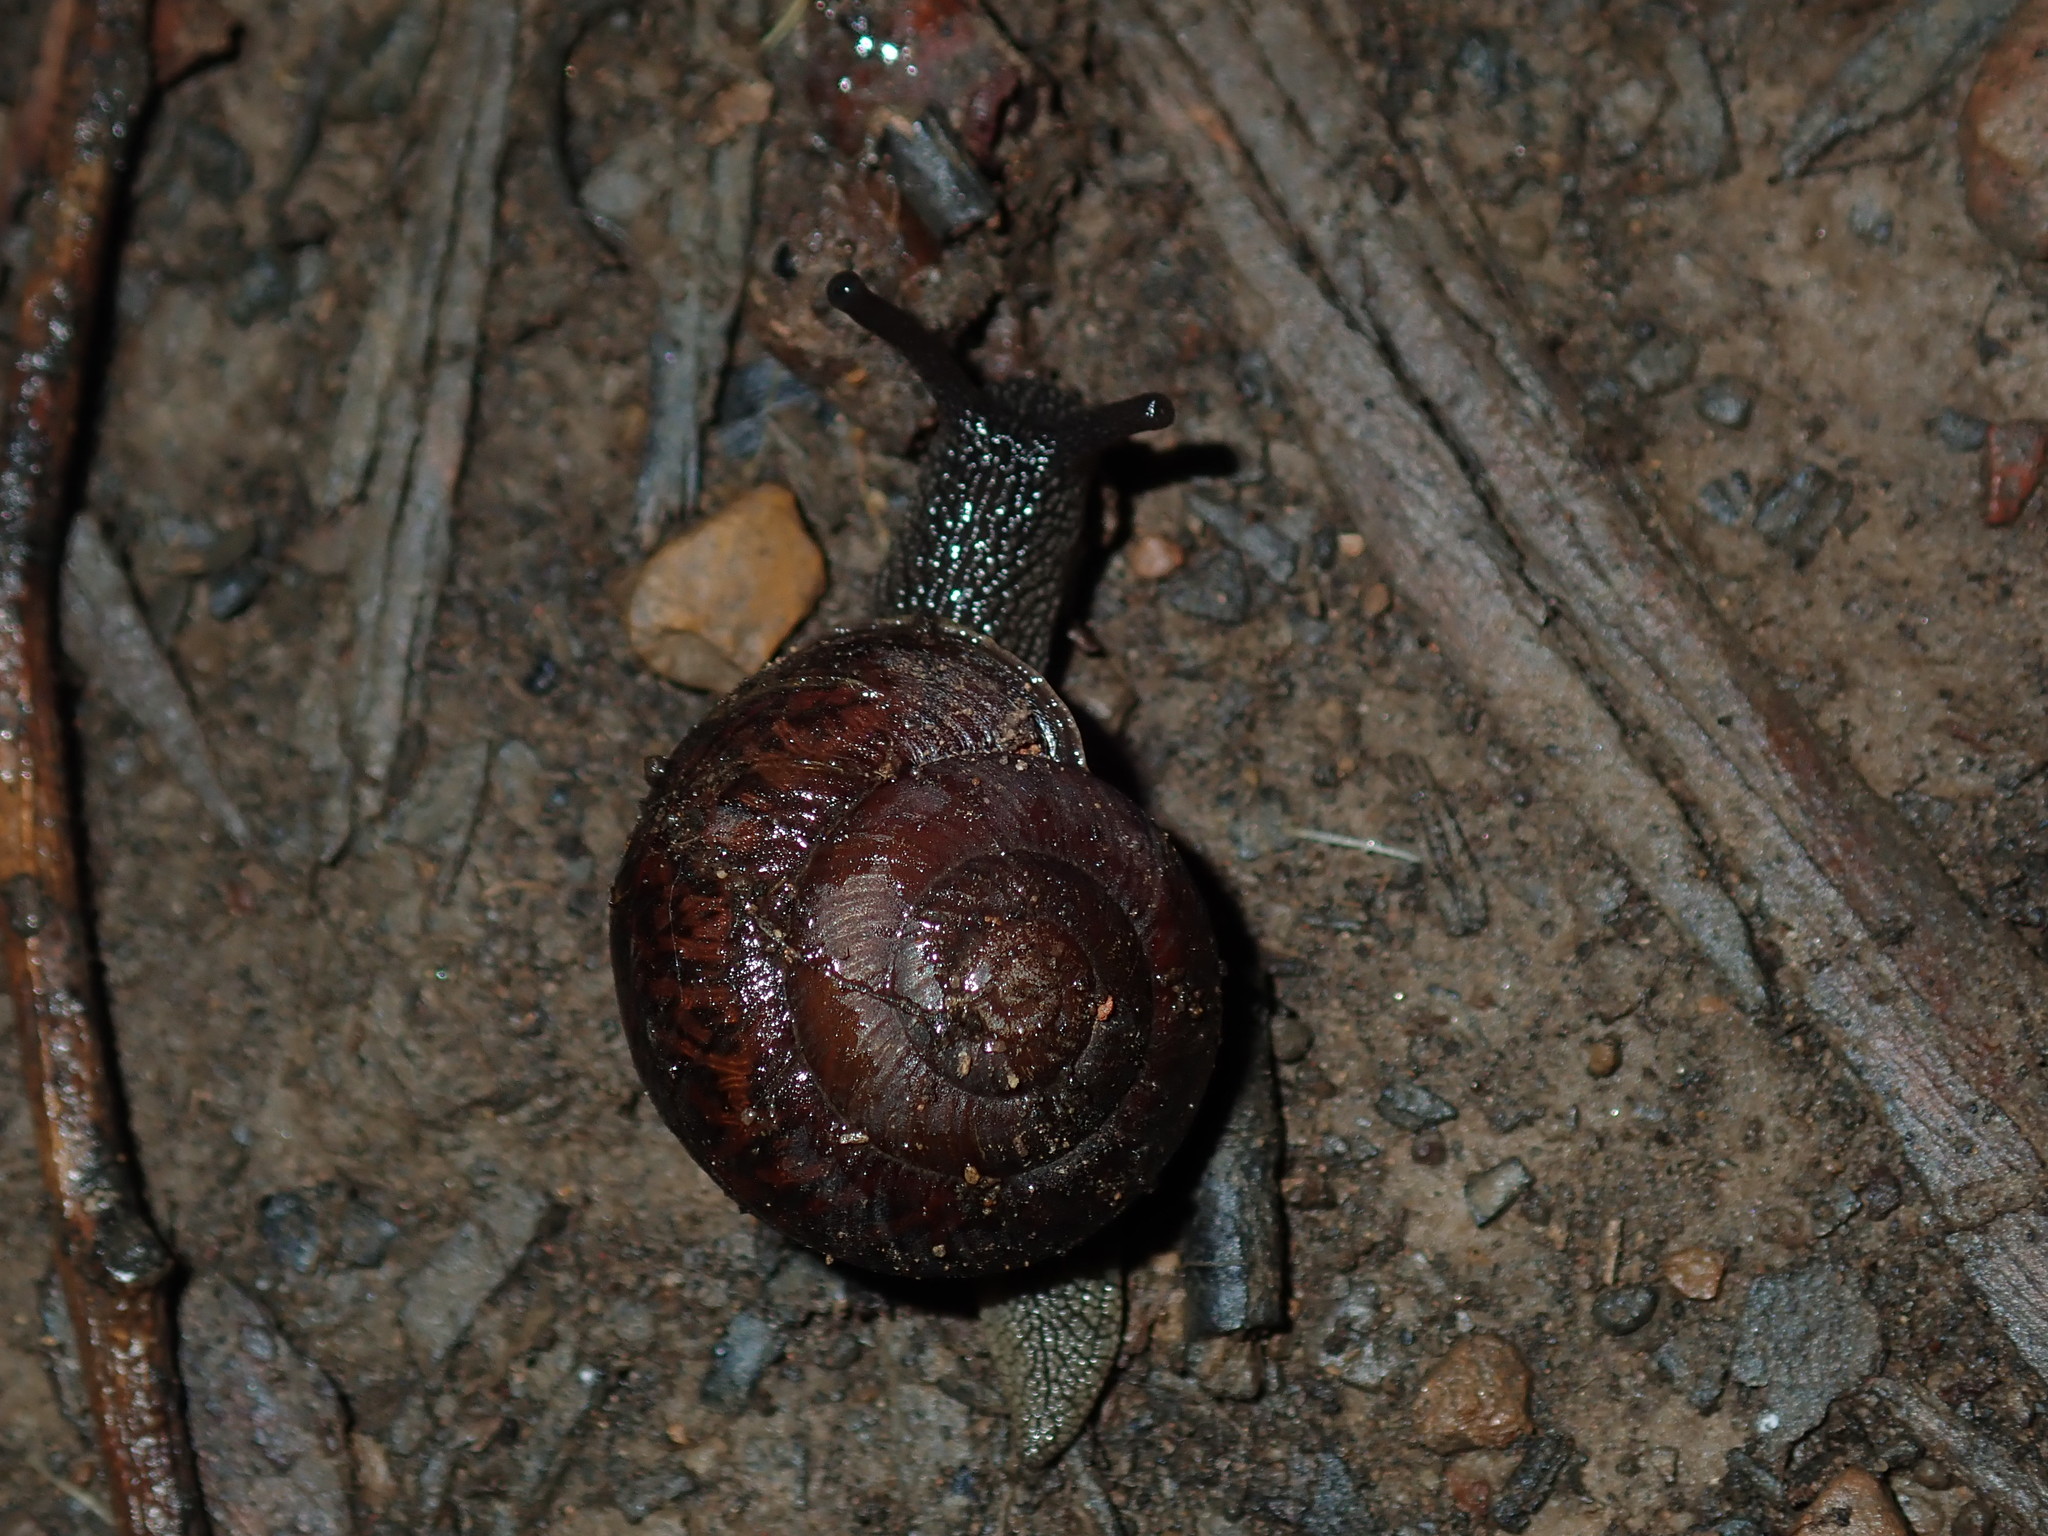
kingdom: Animalia
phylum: Mollusca
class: Gastropoda
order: Stylommatophora
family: Camaenidae
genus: Sauroconcha
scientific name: Sauroconcha sheai
